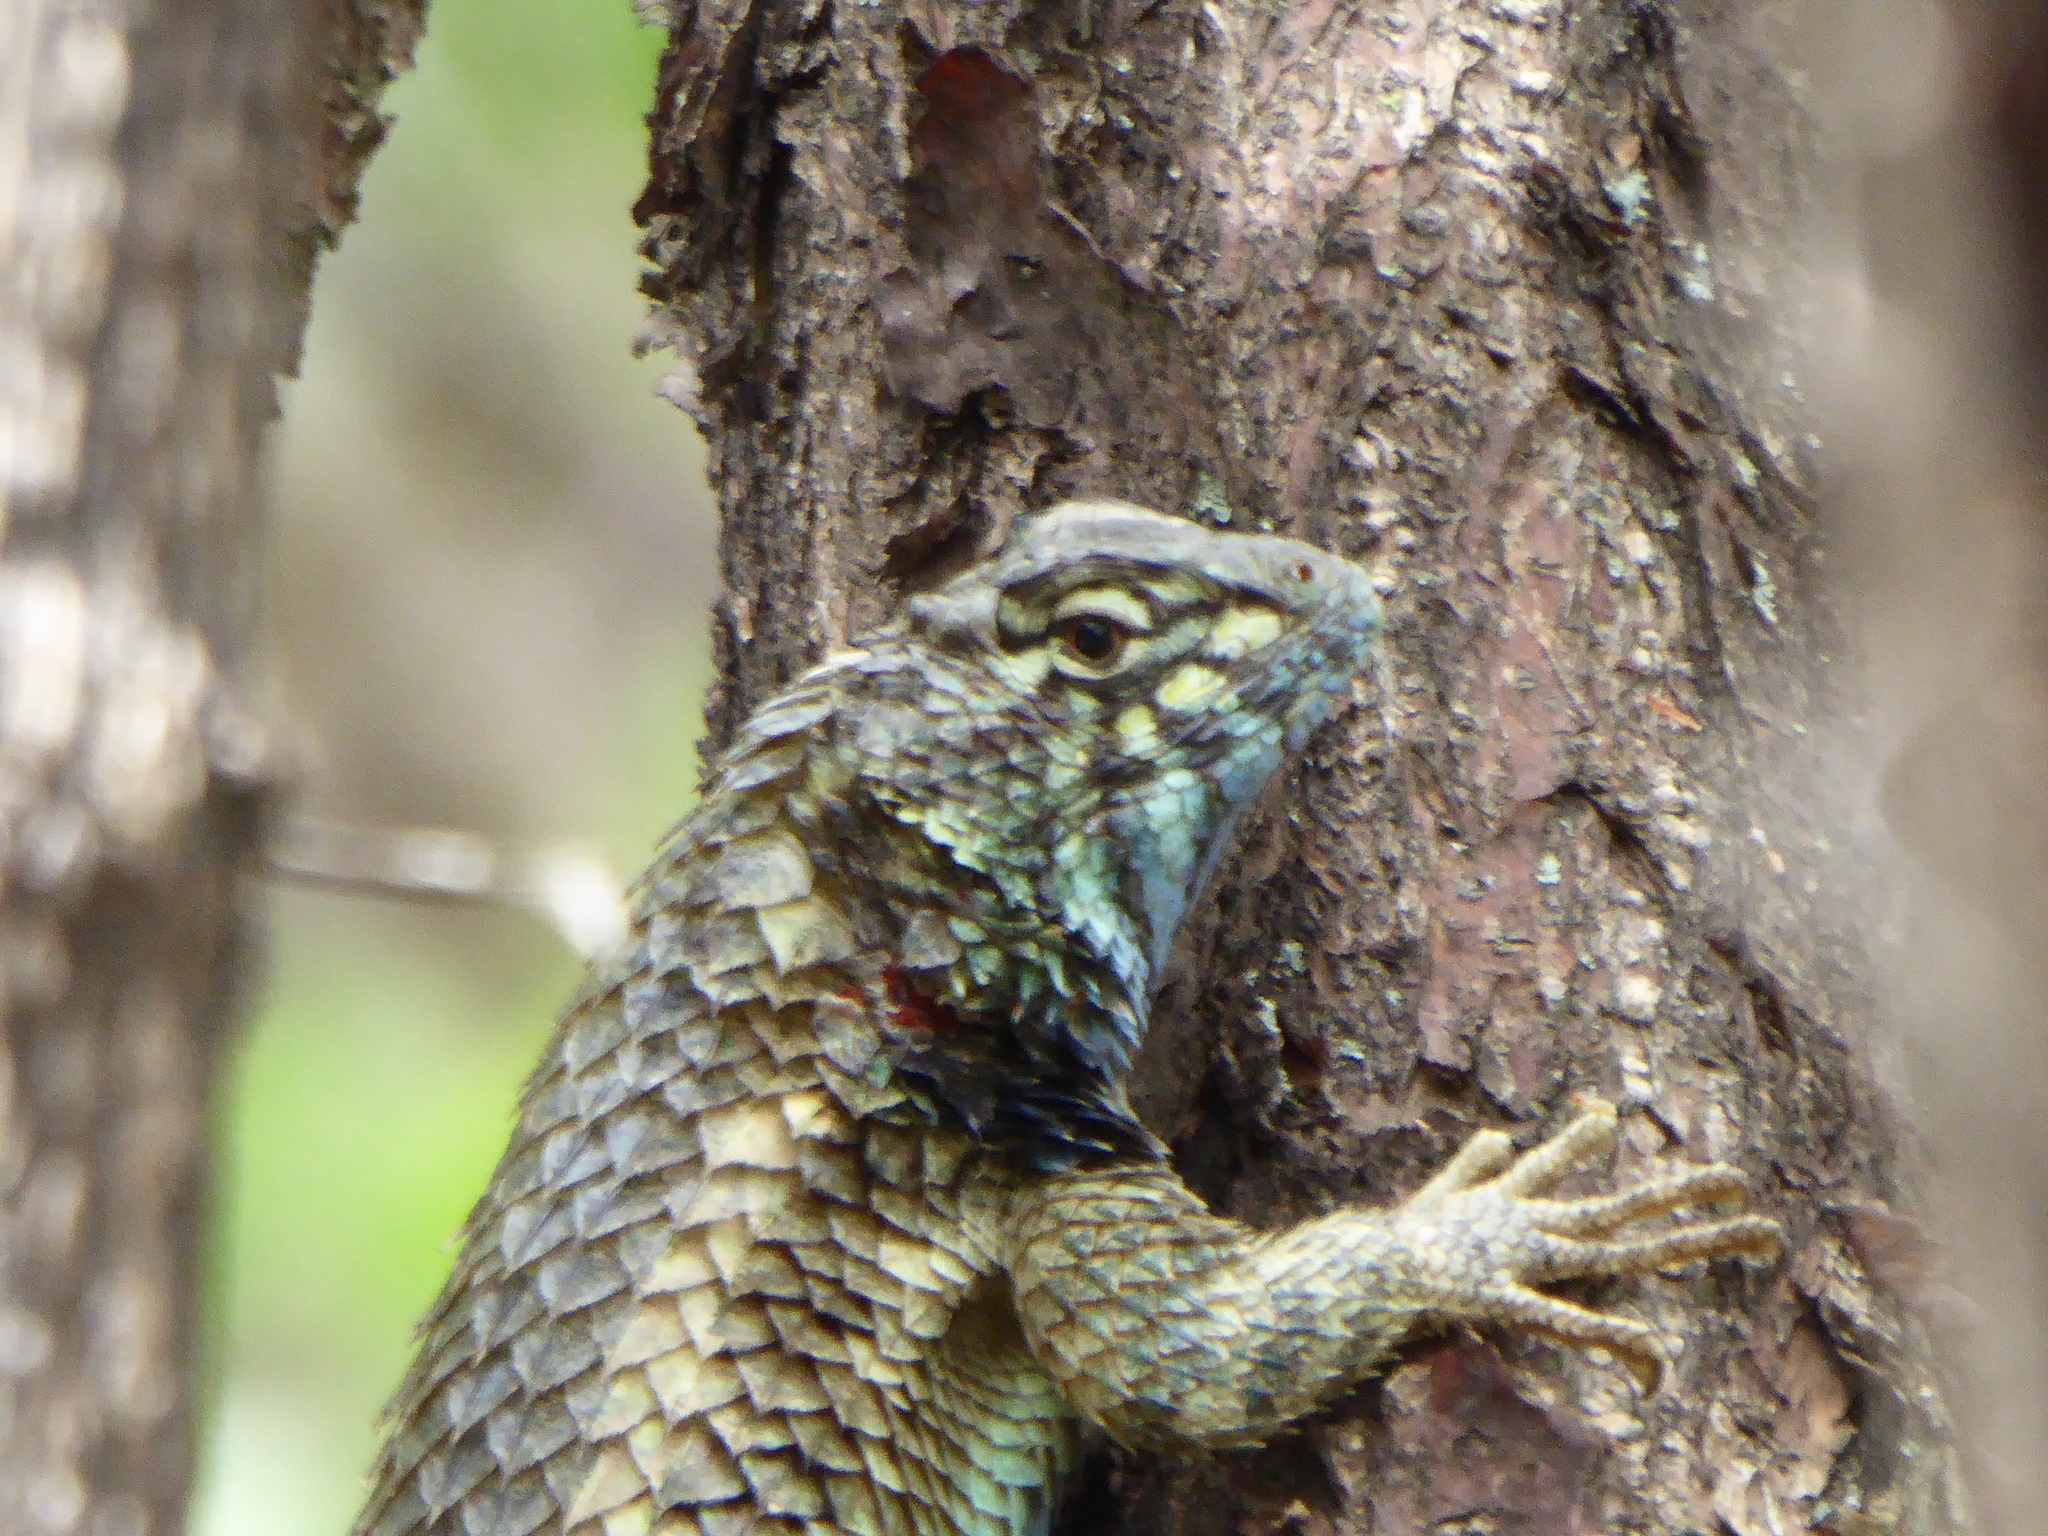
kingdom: Animalia
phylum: Chordata
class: Squamata
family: Phrynosomatidae
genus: Sceloporus
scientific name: Sceloporus horridus
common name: Few-pored rough lizard
